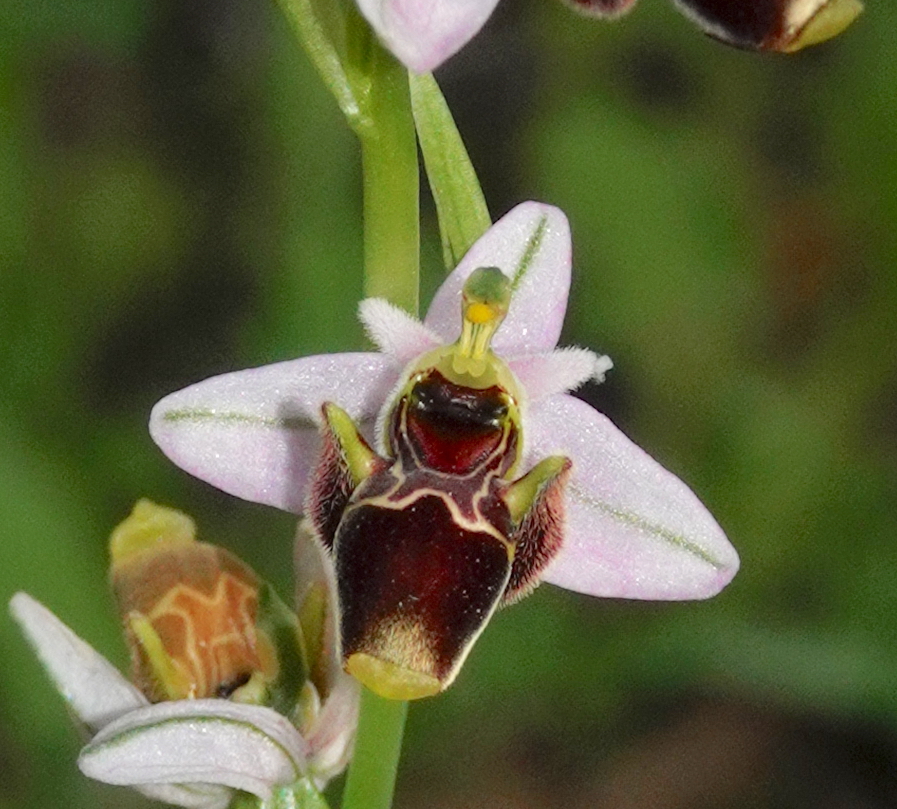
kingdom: Plantae
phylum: Tracheophyta
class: Liliopsida
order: Asparagales
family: Orchidaceae
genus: Ophrys
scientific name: Ophrys scolopax
